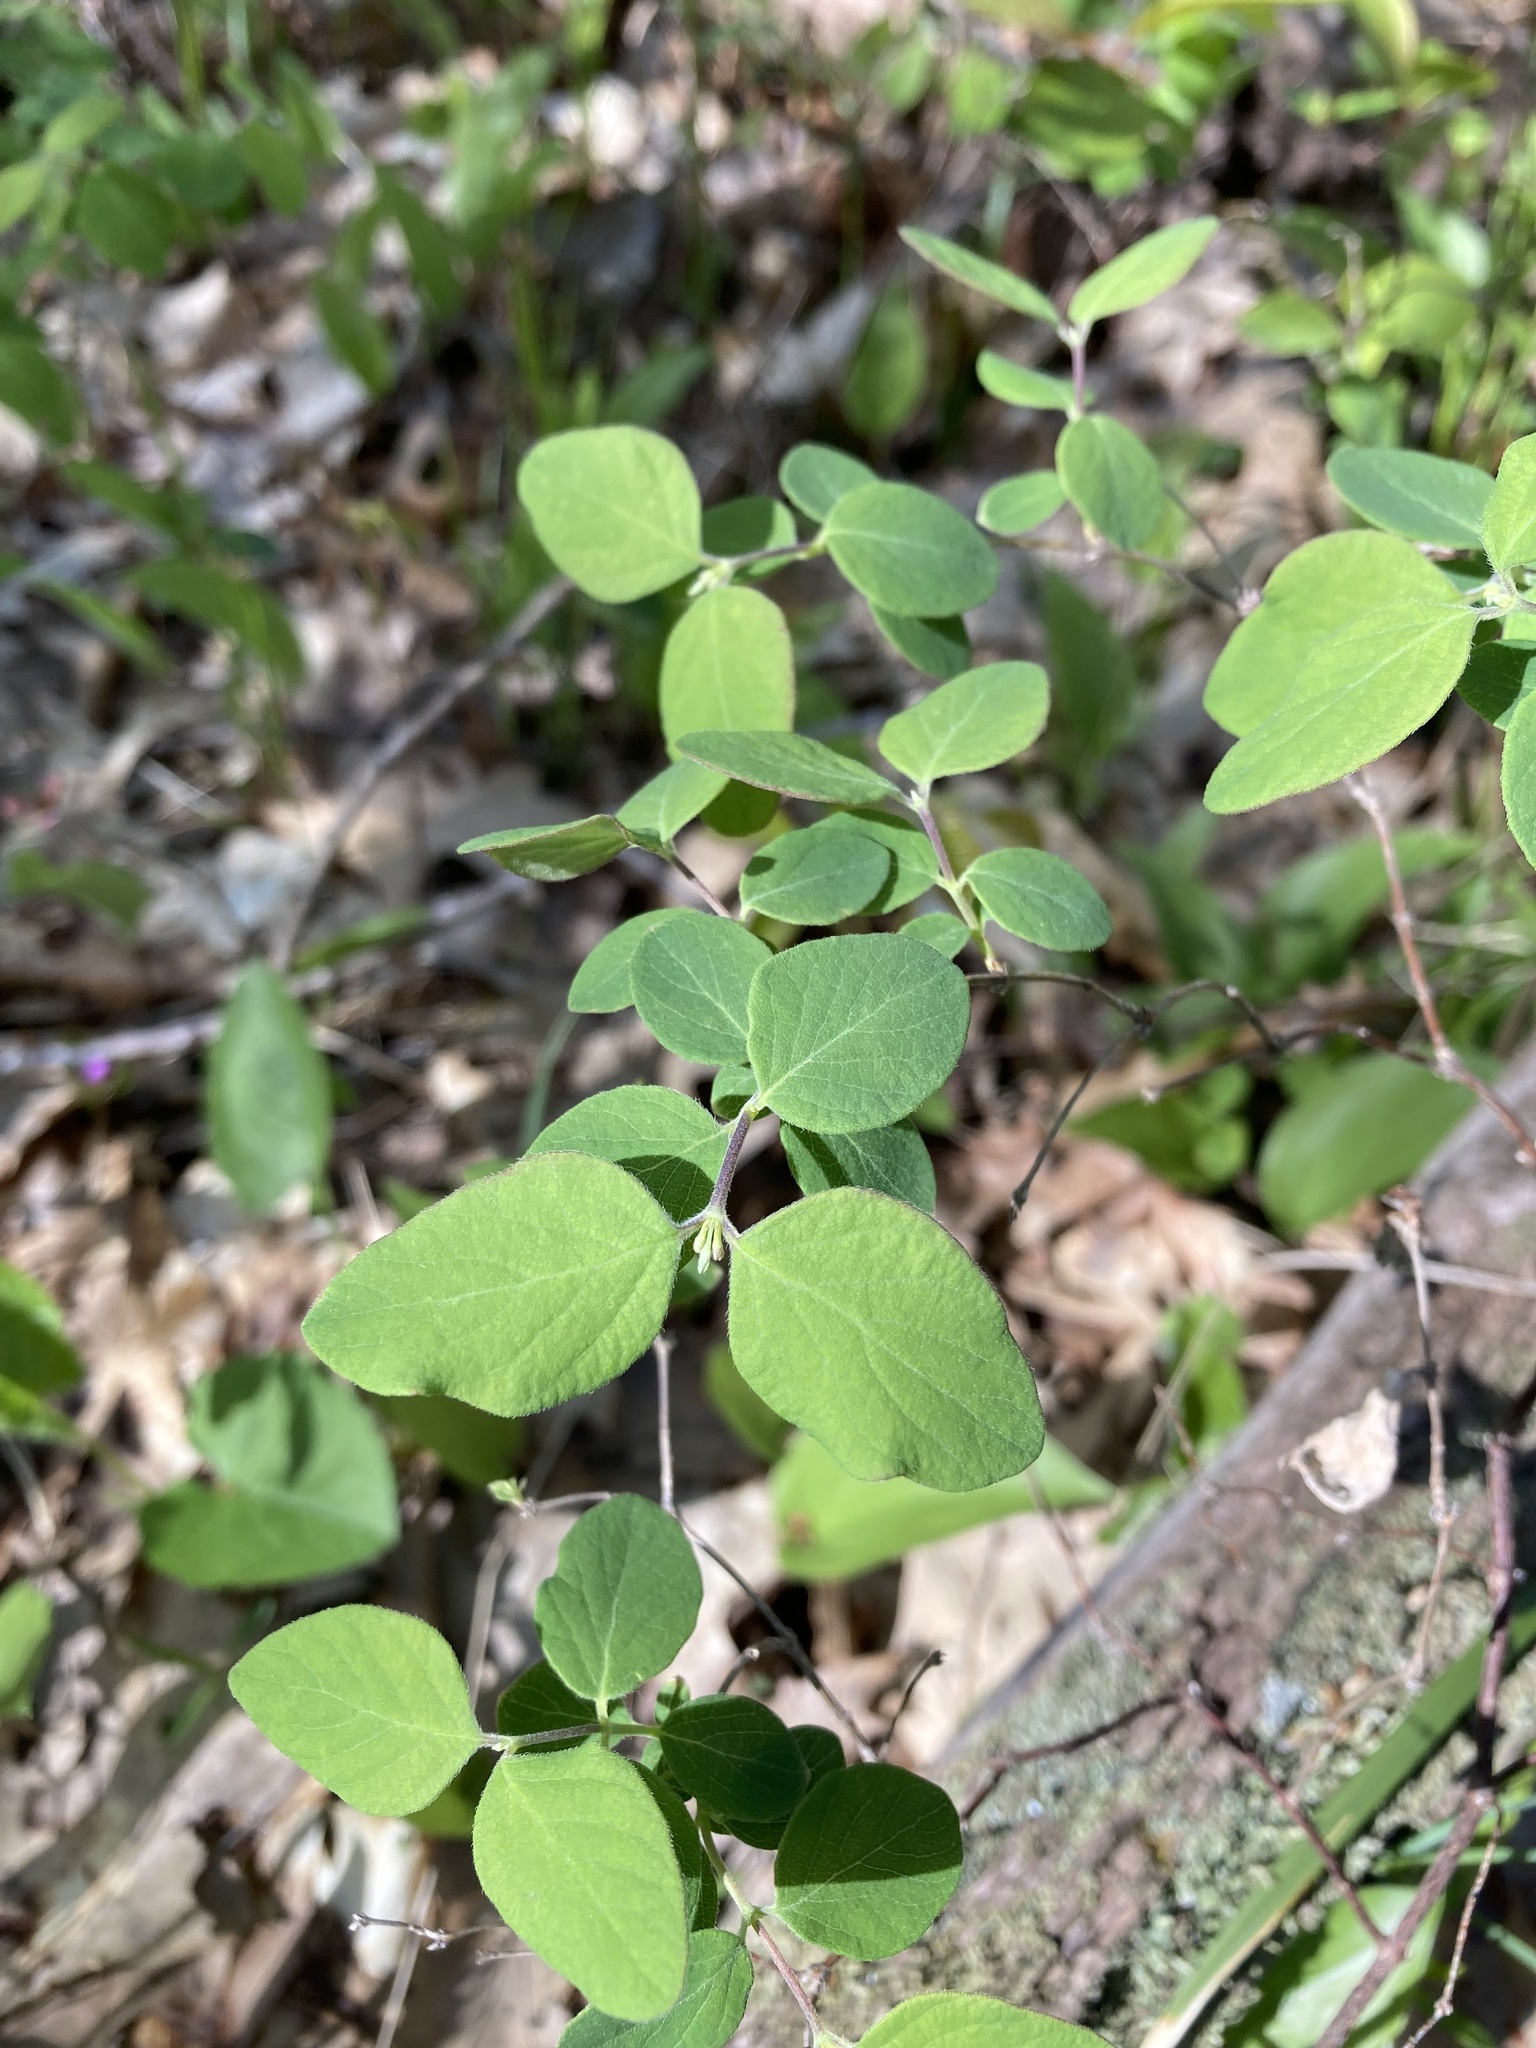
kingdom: Plantae
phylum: Tracheophyta
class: Magnoliopsida
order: Dipsacales
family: Caprifoliaceae
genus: Symphoricarpos
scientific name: Symphoricarpos albus
